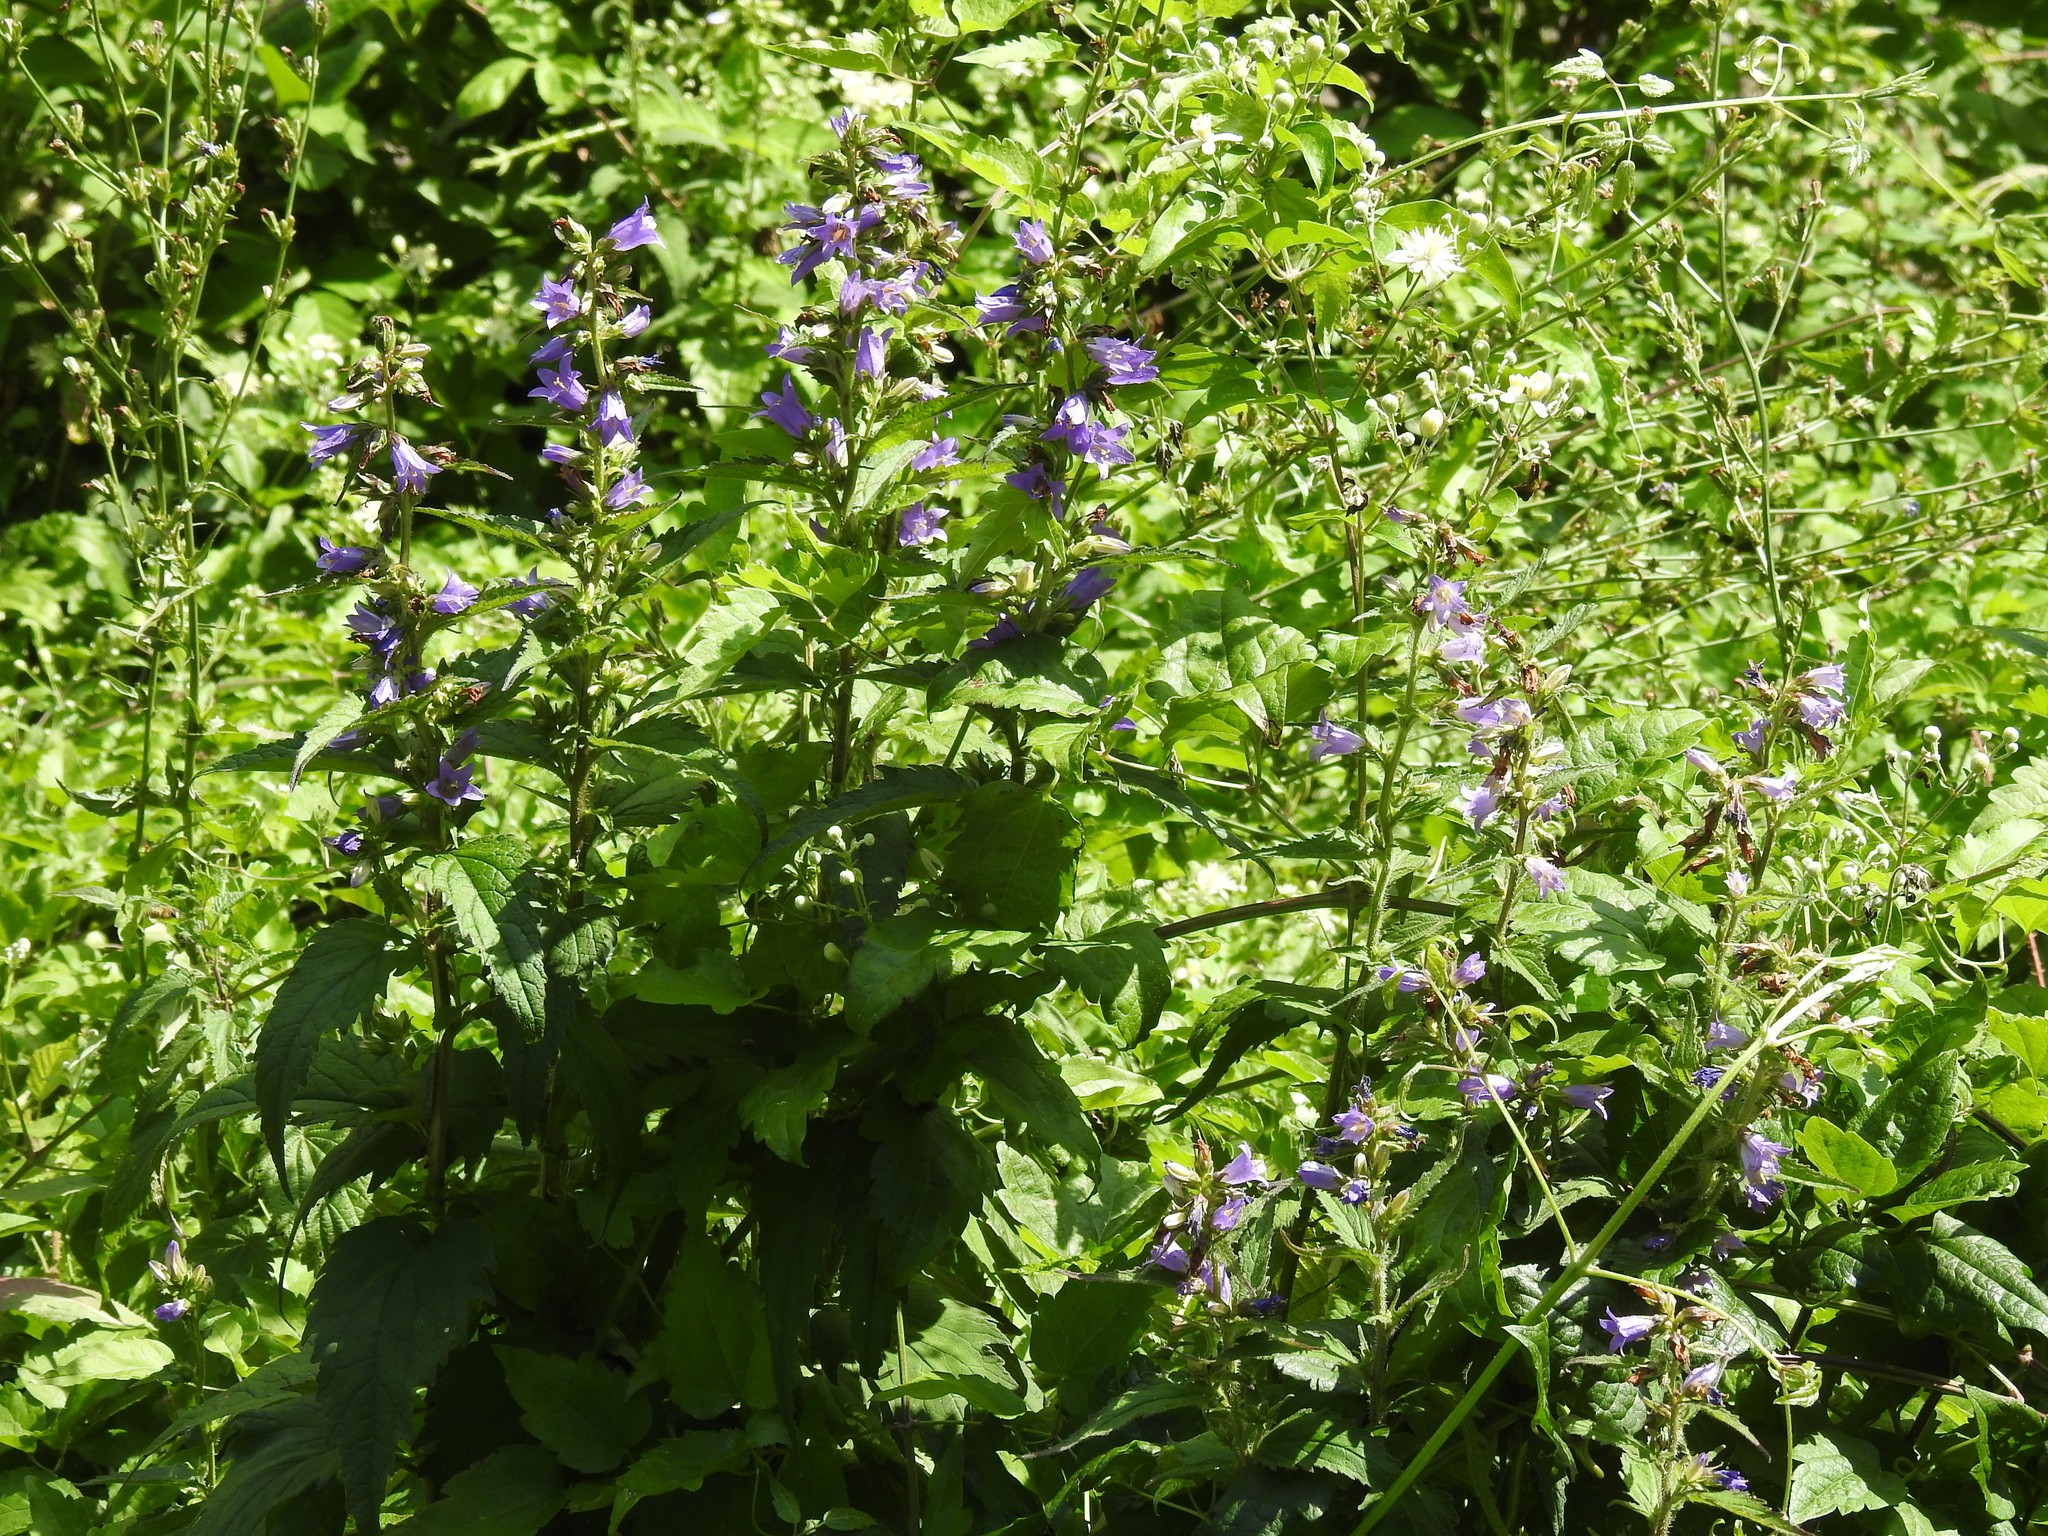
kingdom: Plantae
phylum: Tracheophyta
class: Magnoliopsida
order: Asterales
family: Campanulaceae
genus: Campanula
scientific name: Campanula trachelium
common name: Nettle-leaved bellflower
